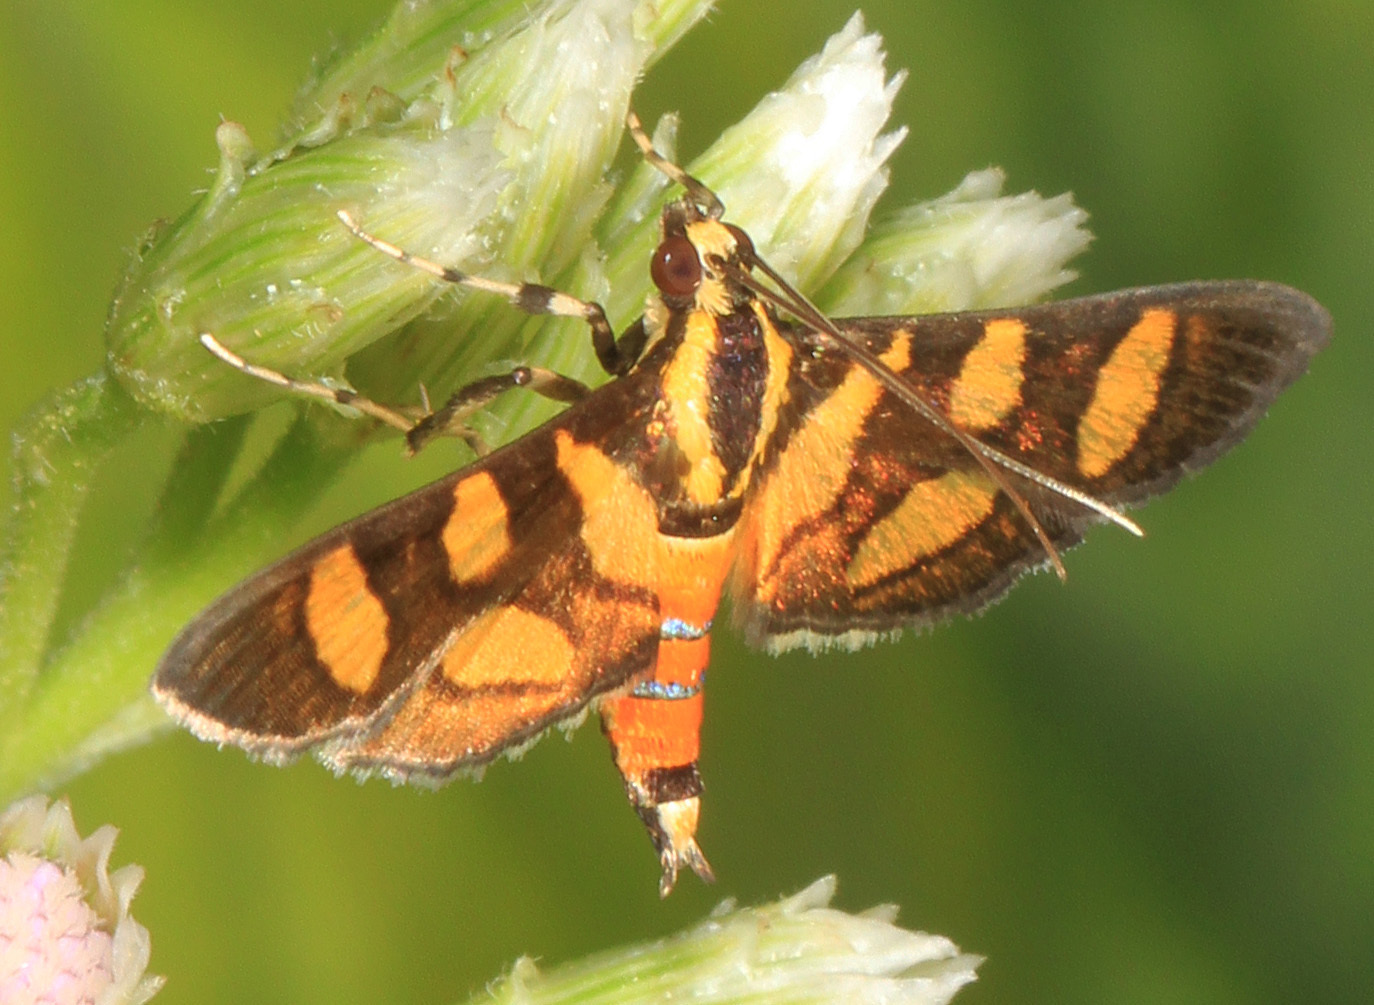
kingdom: Animalia
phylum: Arthropoda
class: Insecta
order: Lepidoptera
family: Crambidae
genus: Syngamia
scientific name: Syngamia florella
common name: Orange-spotted flower moth
